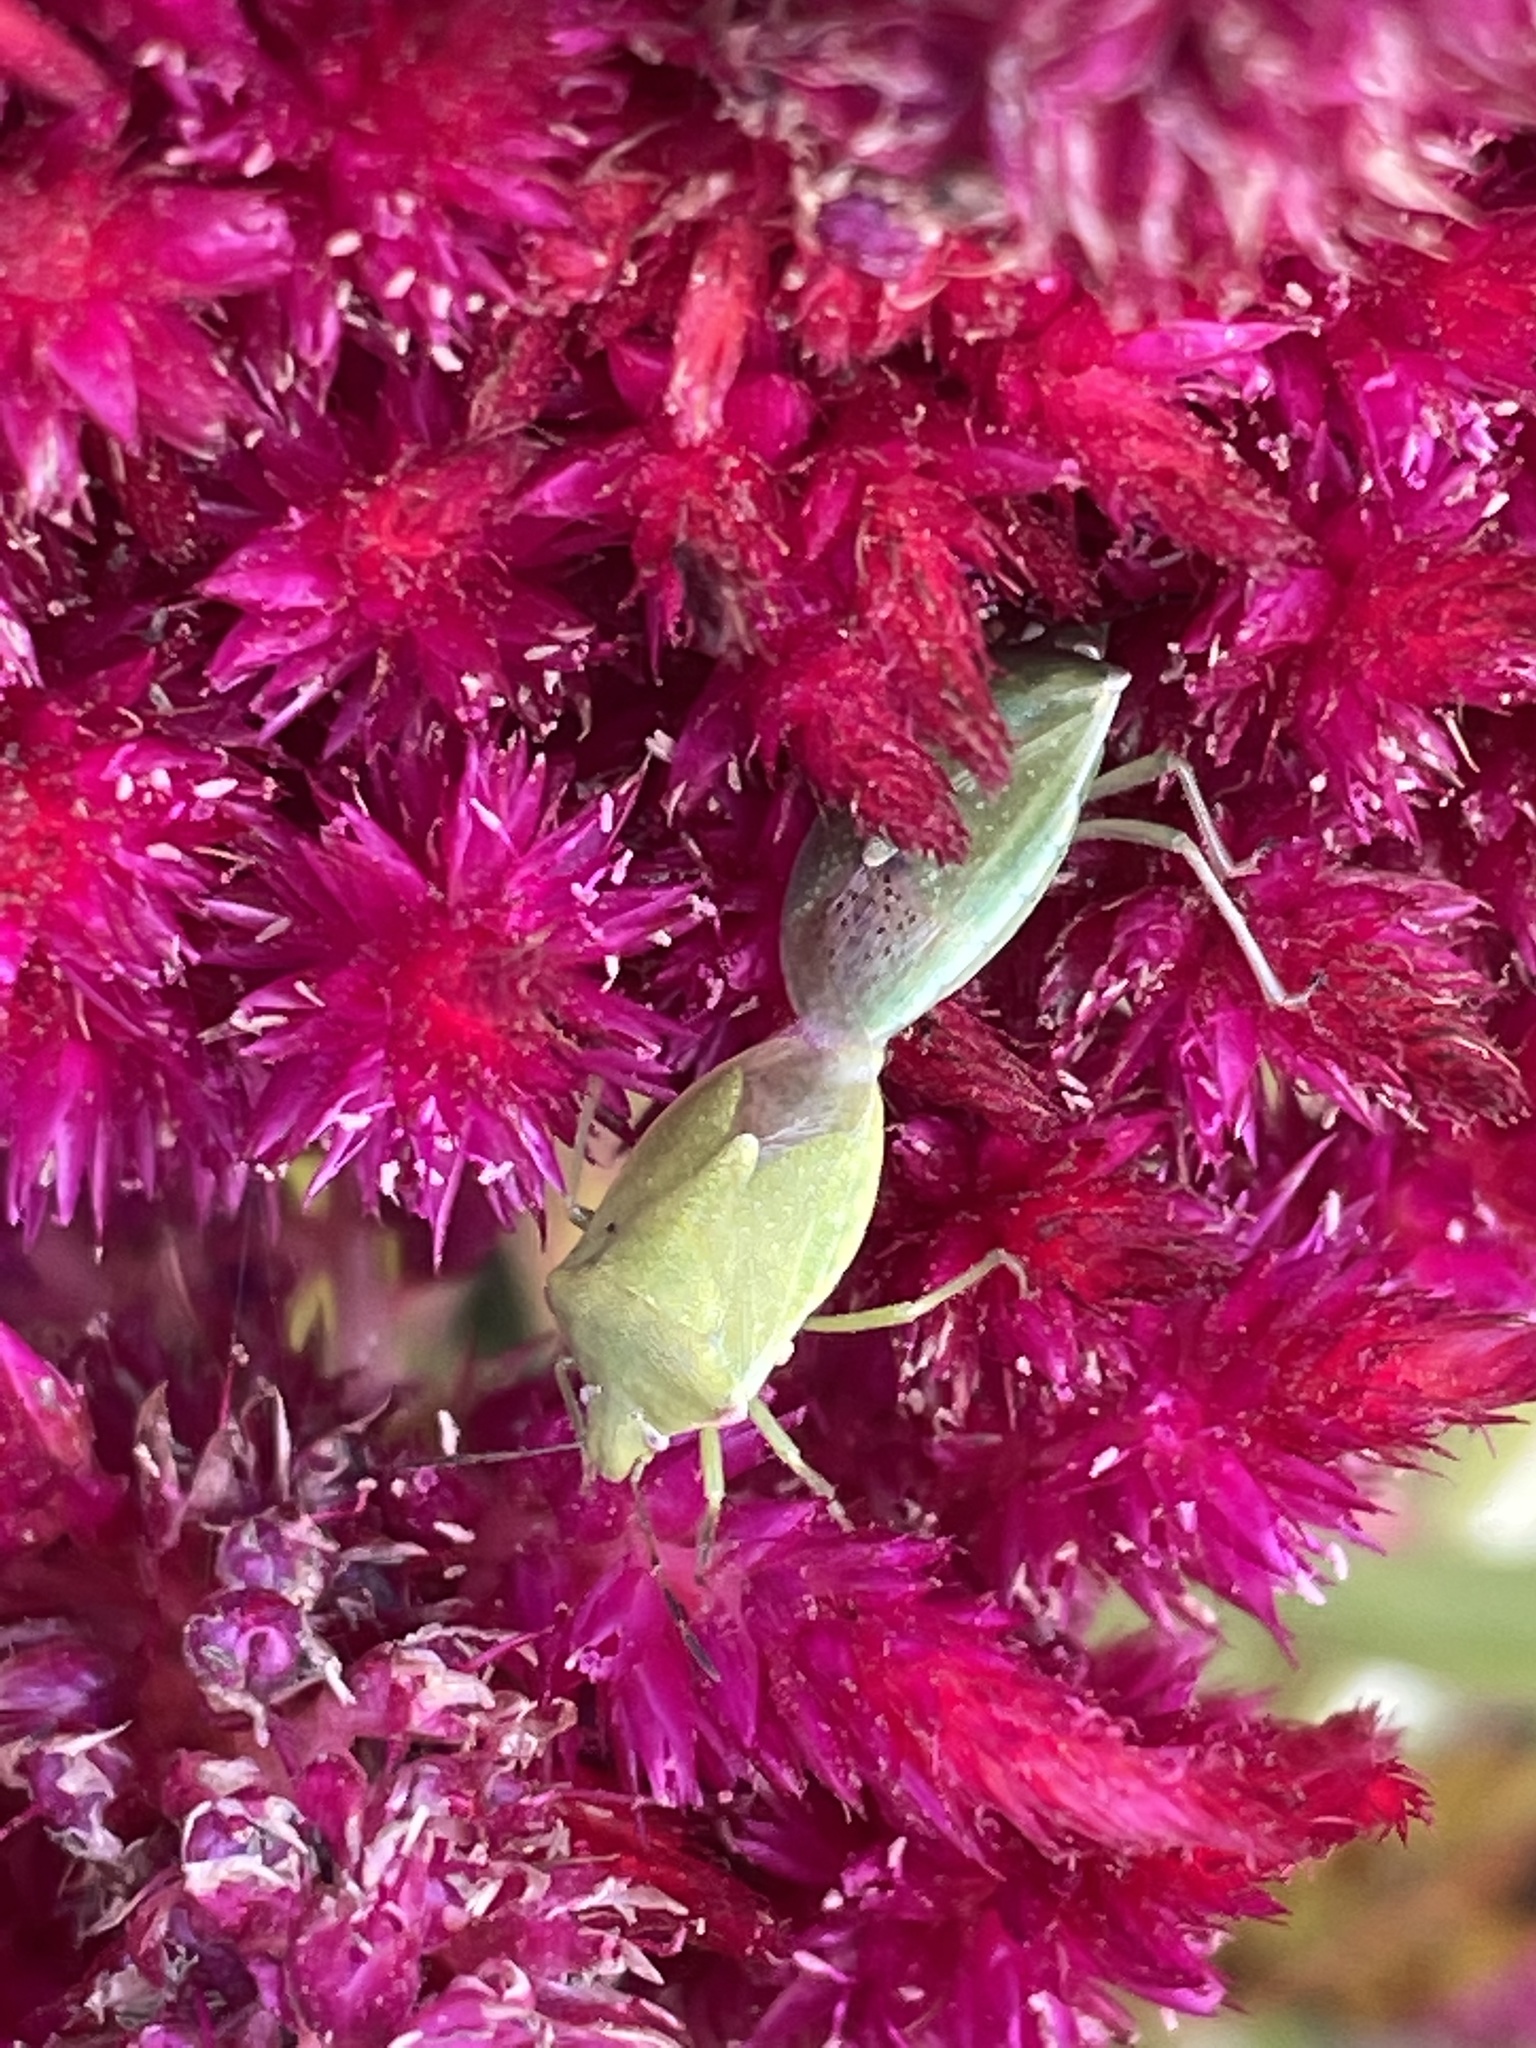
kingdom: Animalia
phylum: Arthropoda
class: Insecta
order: Hemiptera
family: Pentatomidae
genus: Thyanta
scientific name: Thyanta
